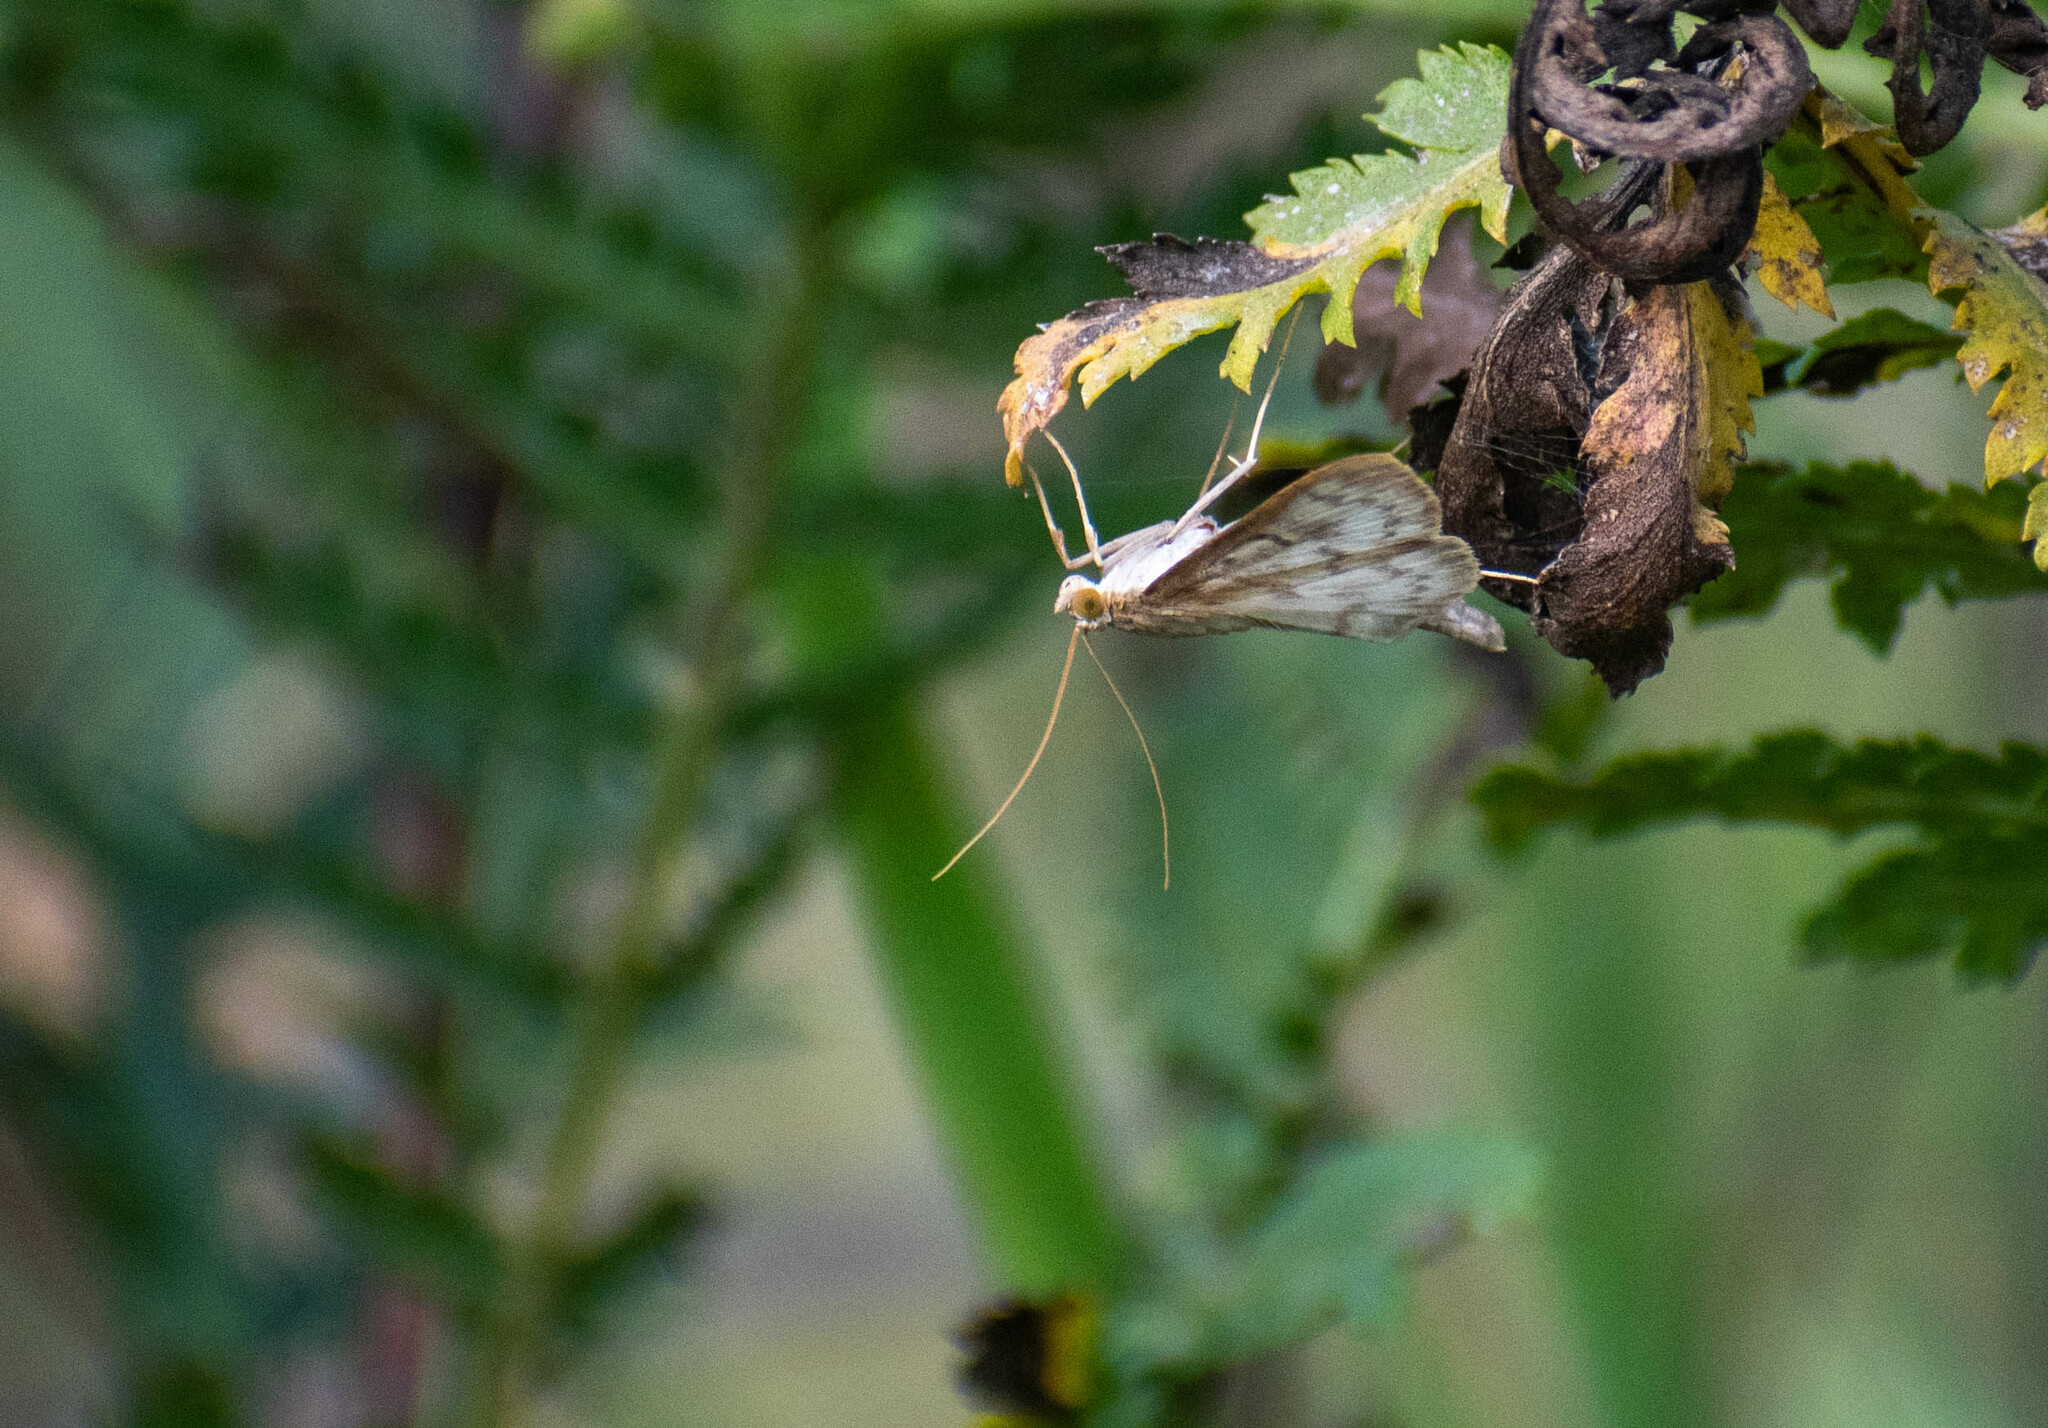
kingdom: Animalia
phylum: Arthropoda
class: Insecta
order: Lepidoptera
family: Crambidae
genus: Patania
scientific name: Patania ruralis
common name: Mother of pearl
